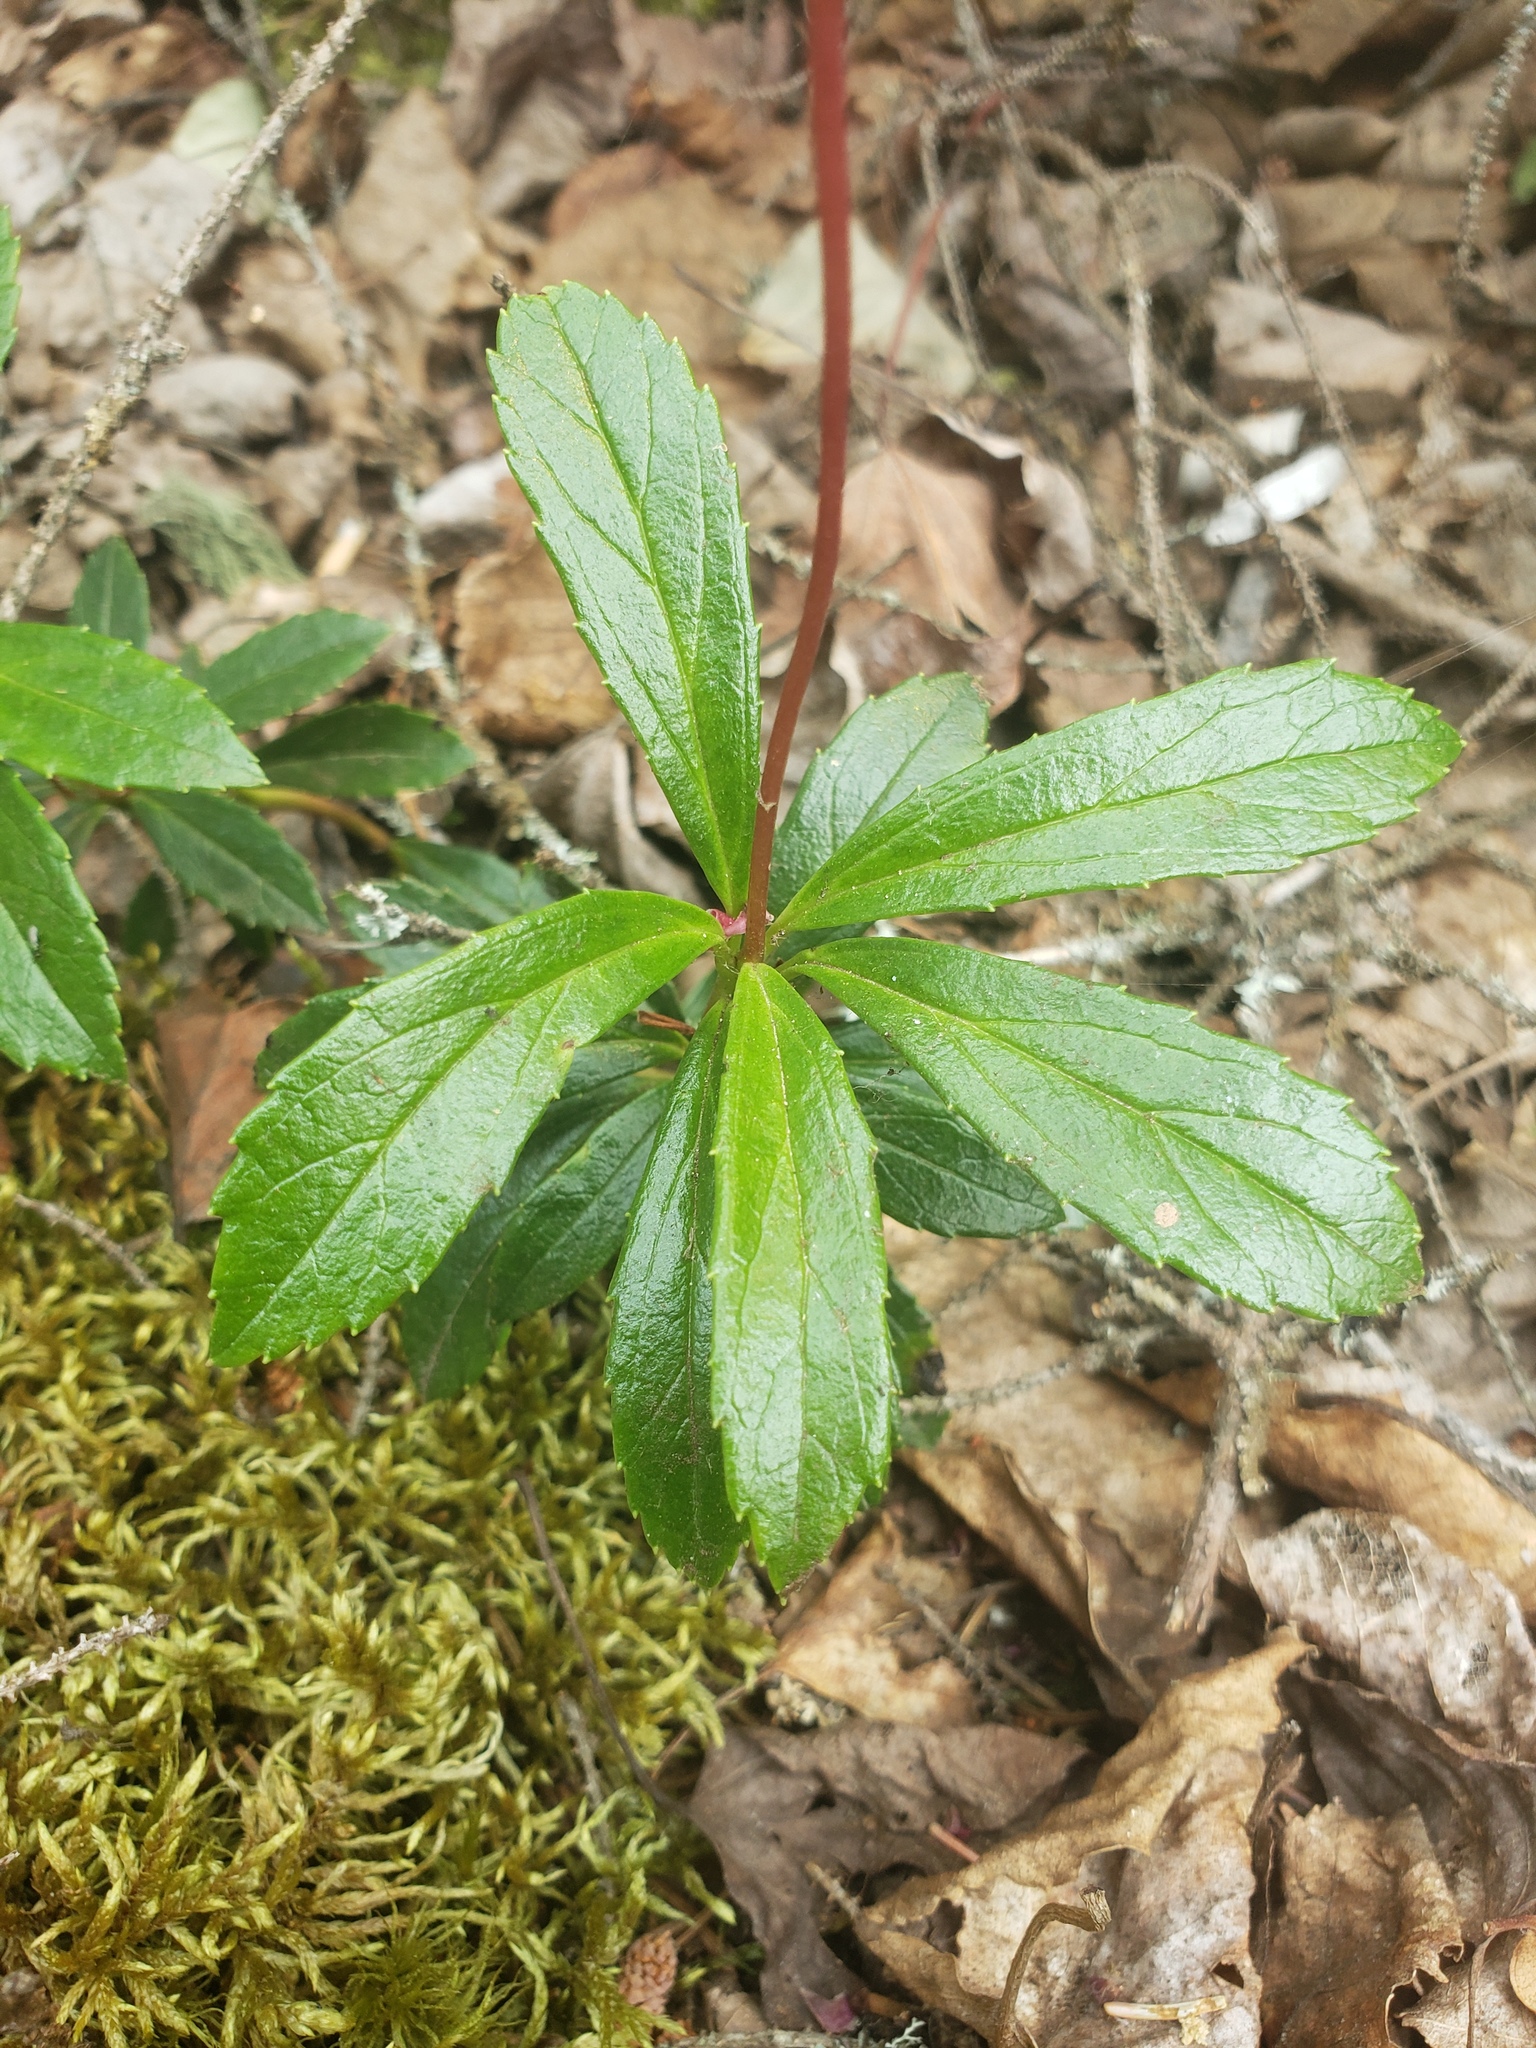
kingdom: Plantae
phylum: Tracheophyta
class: Magnoliopsida
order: Ericales
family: Ericaceae
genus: Chimaphila
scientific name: Chimaphila umbellata
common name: Pipsissewa
